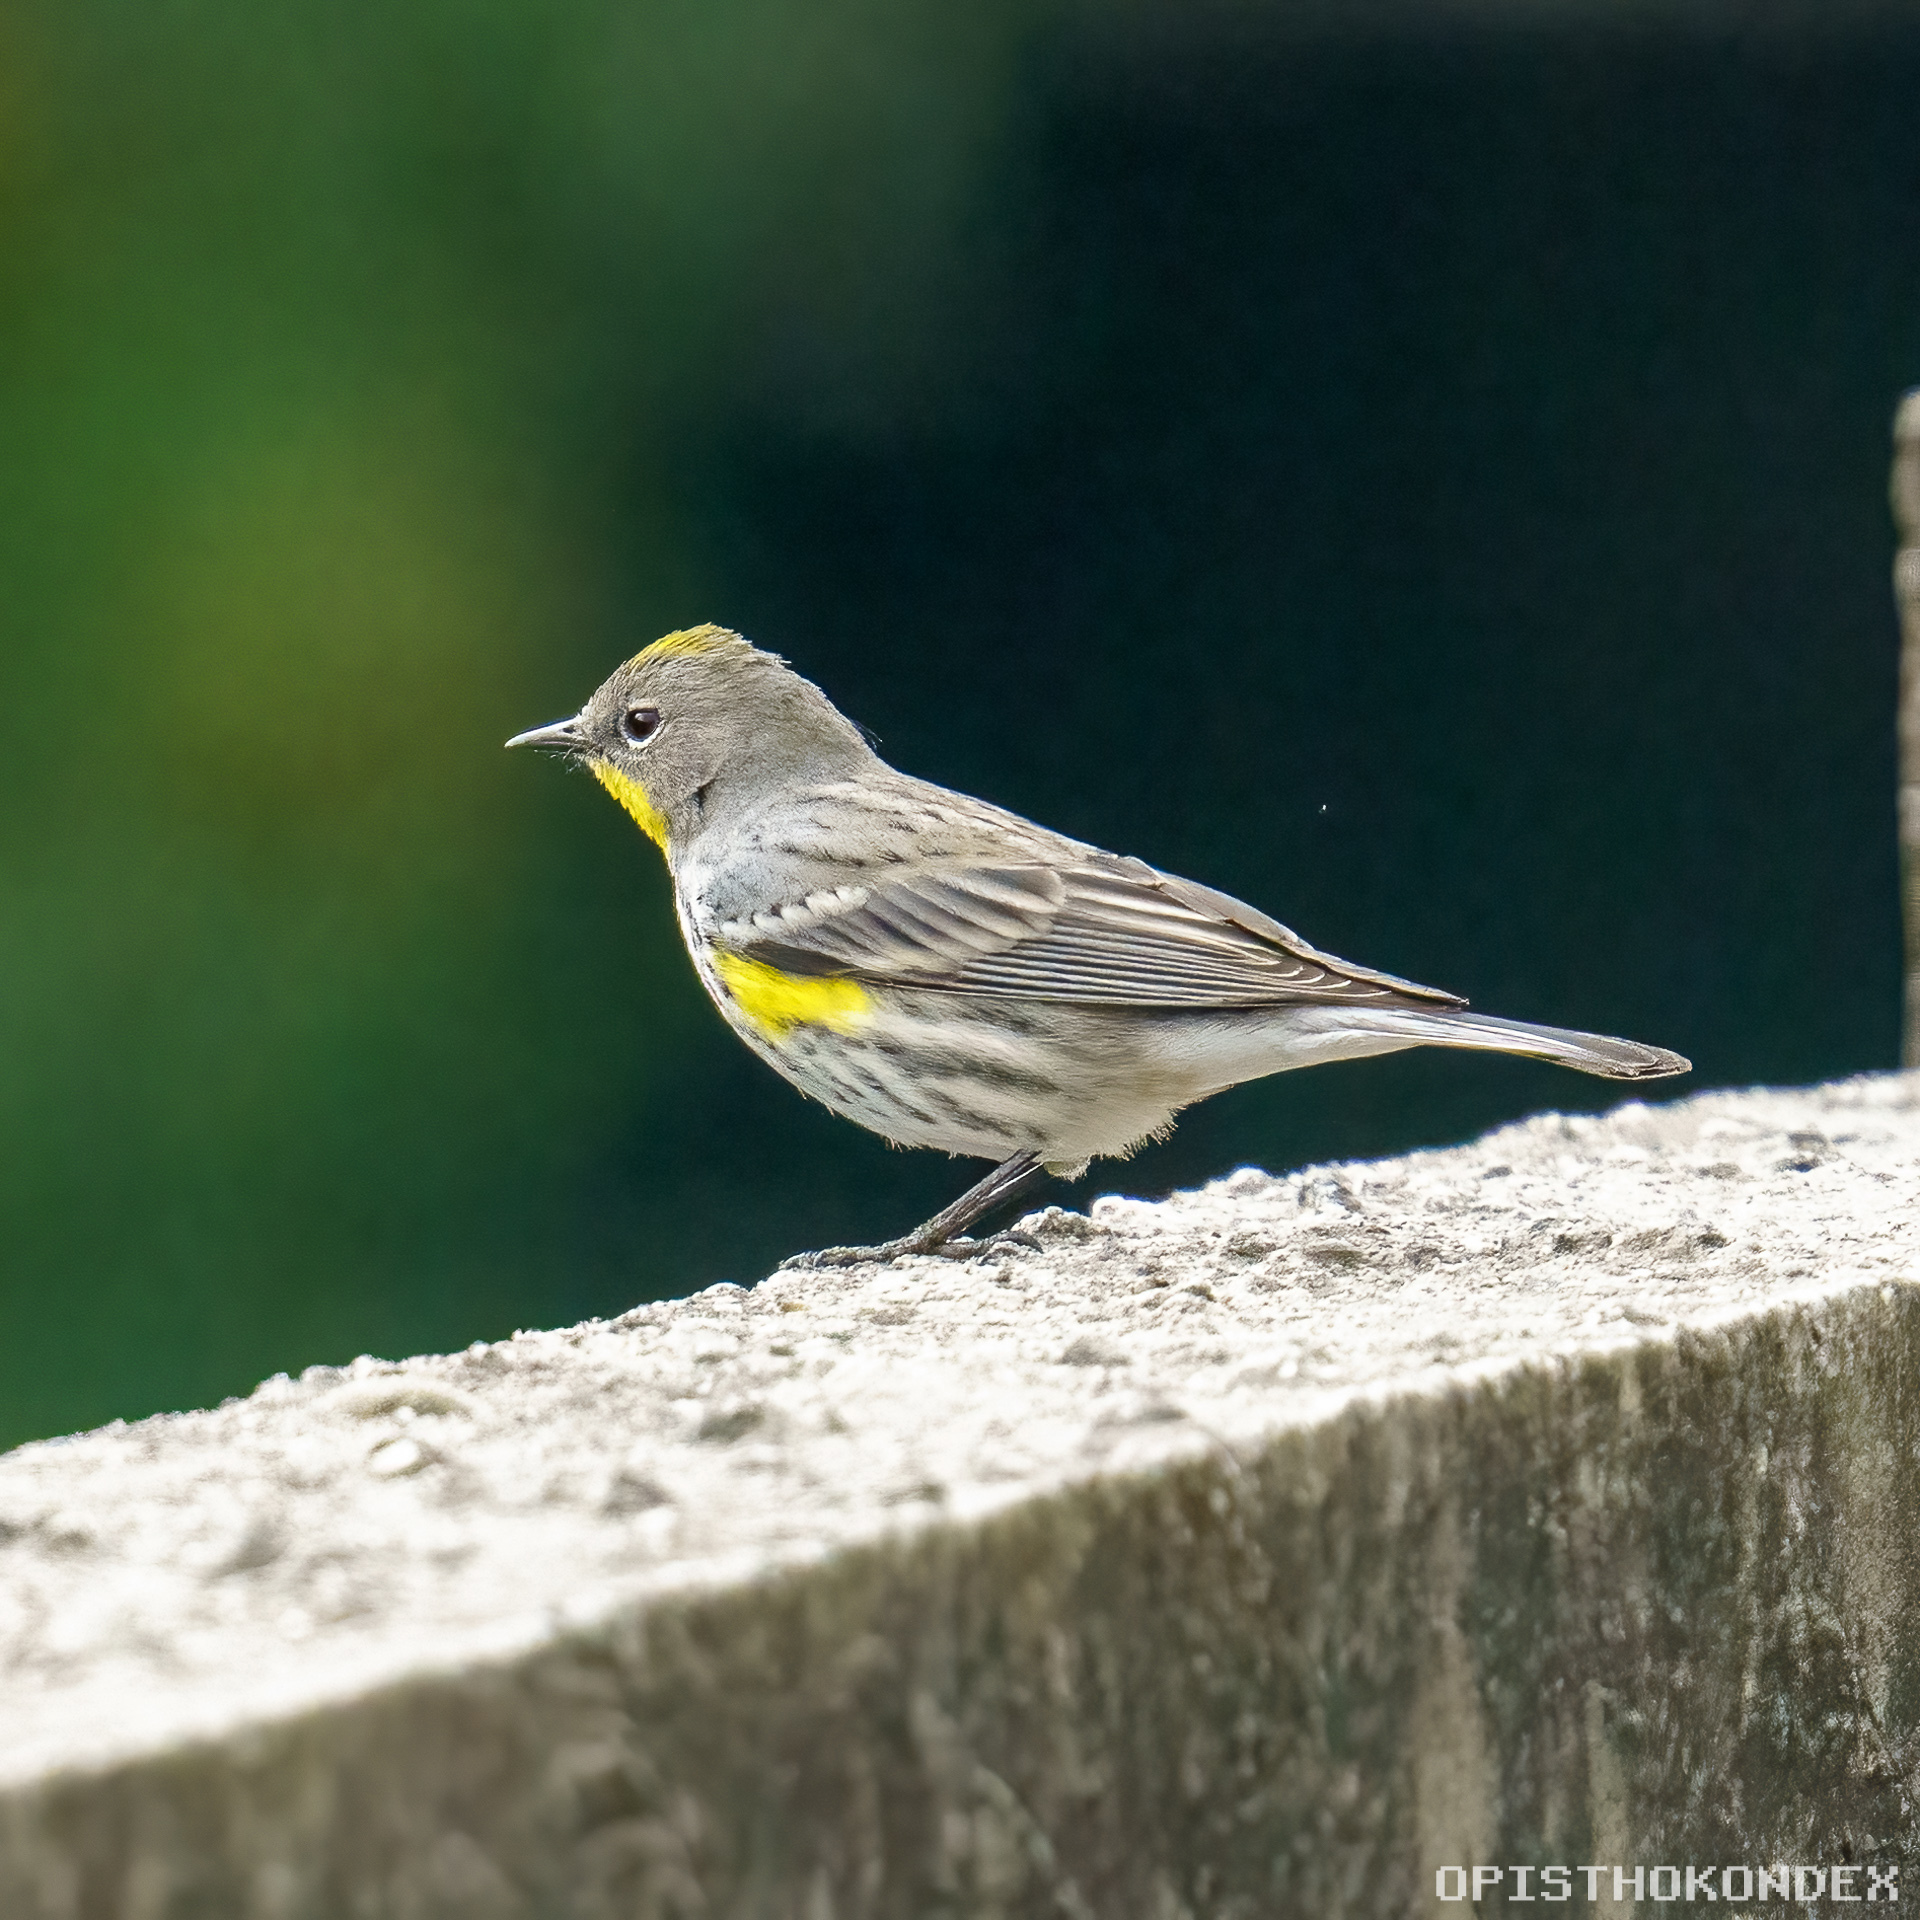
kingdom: Animalia
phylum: Chordata
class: Aves
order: Passeriformes
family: Parulidae
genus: Setophaga
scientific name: Setophaga coronata
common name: Myrtle warbler
